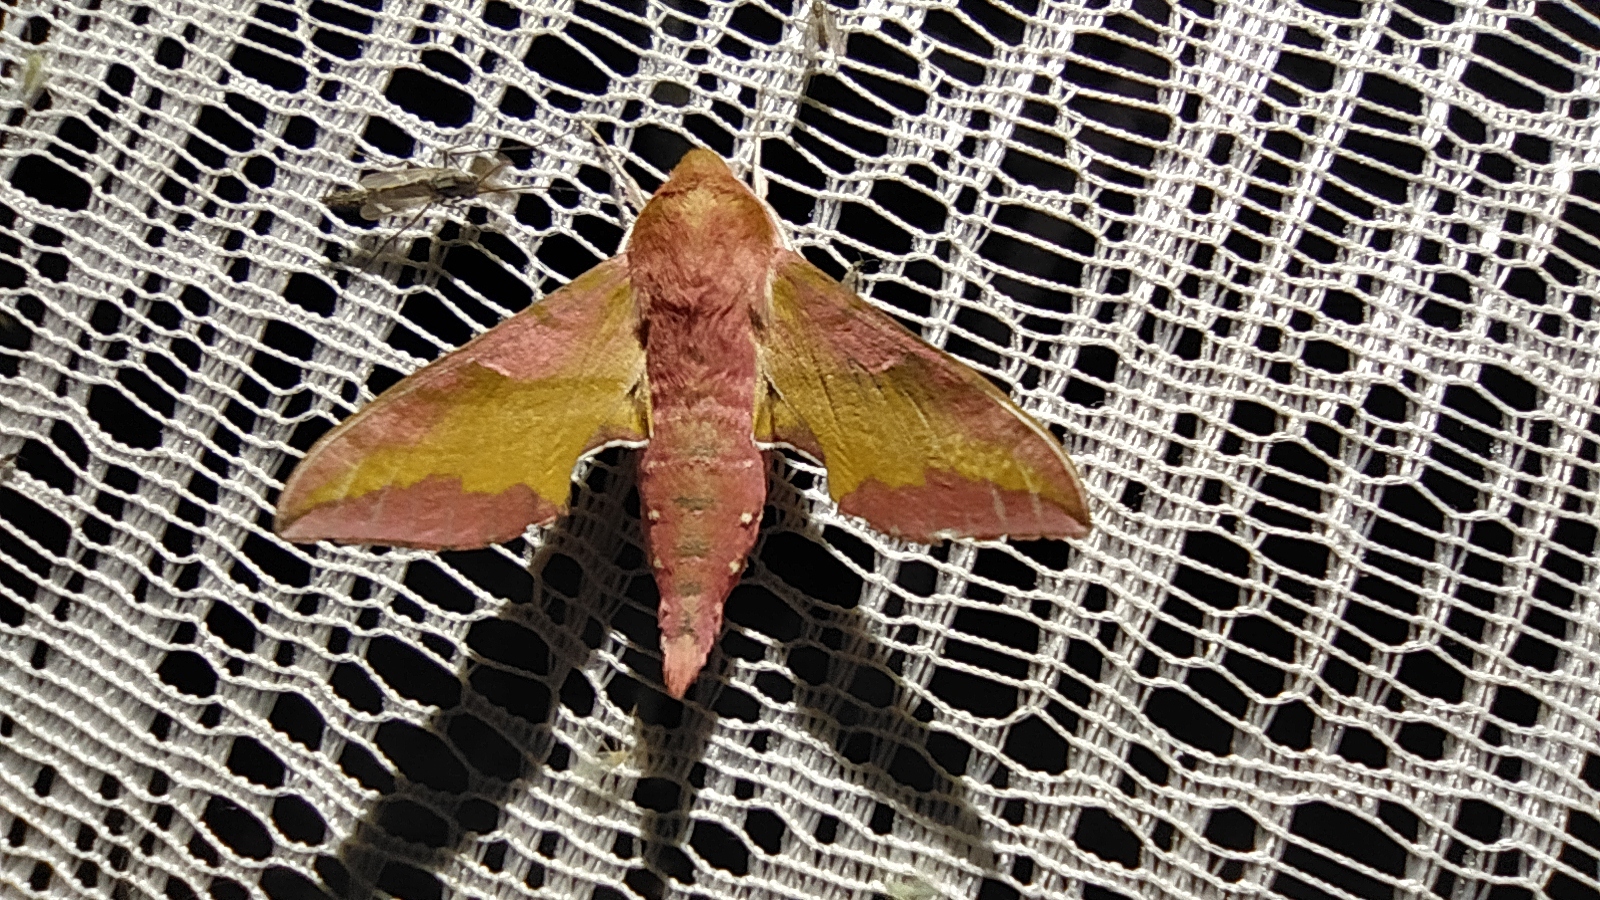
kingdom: Animalia
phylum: Arthropoda
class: Insecta
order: Lepidoptera
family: Sphingidae
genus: Deilephila
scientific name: Deilephila porcellus
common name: Small elephant hawk-moth
